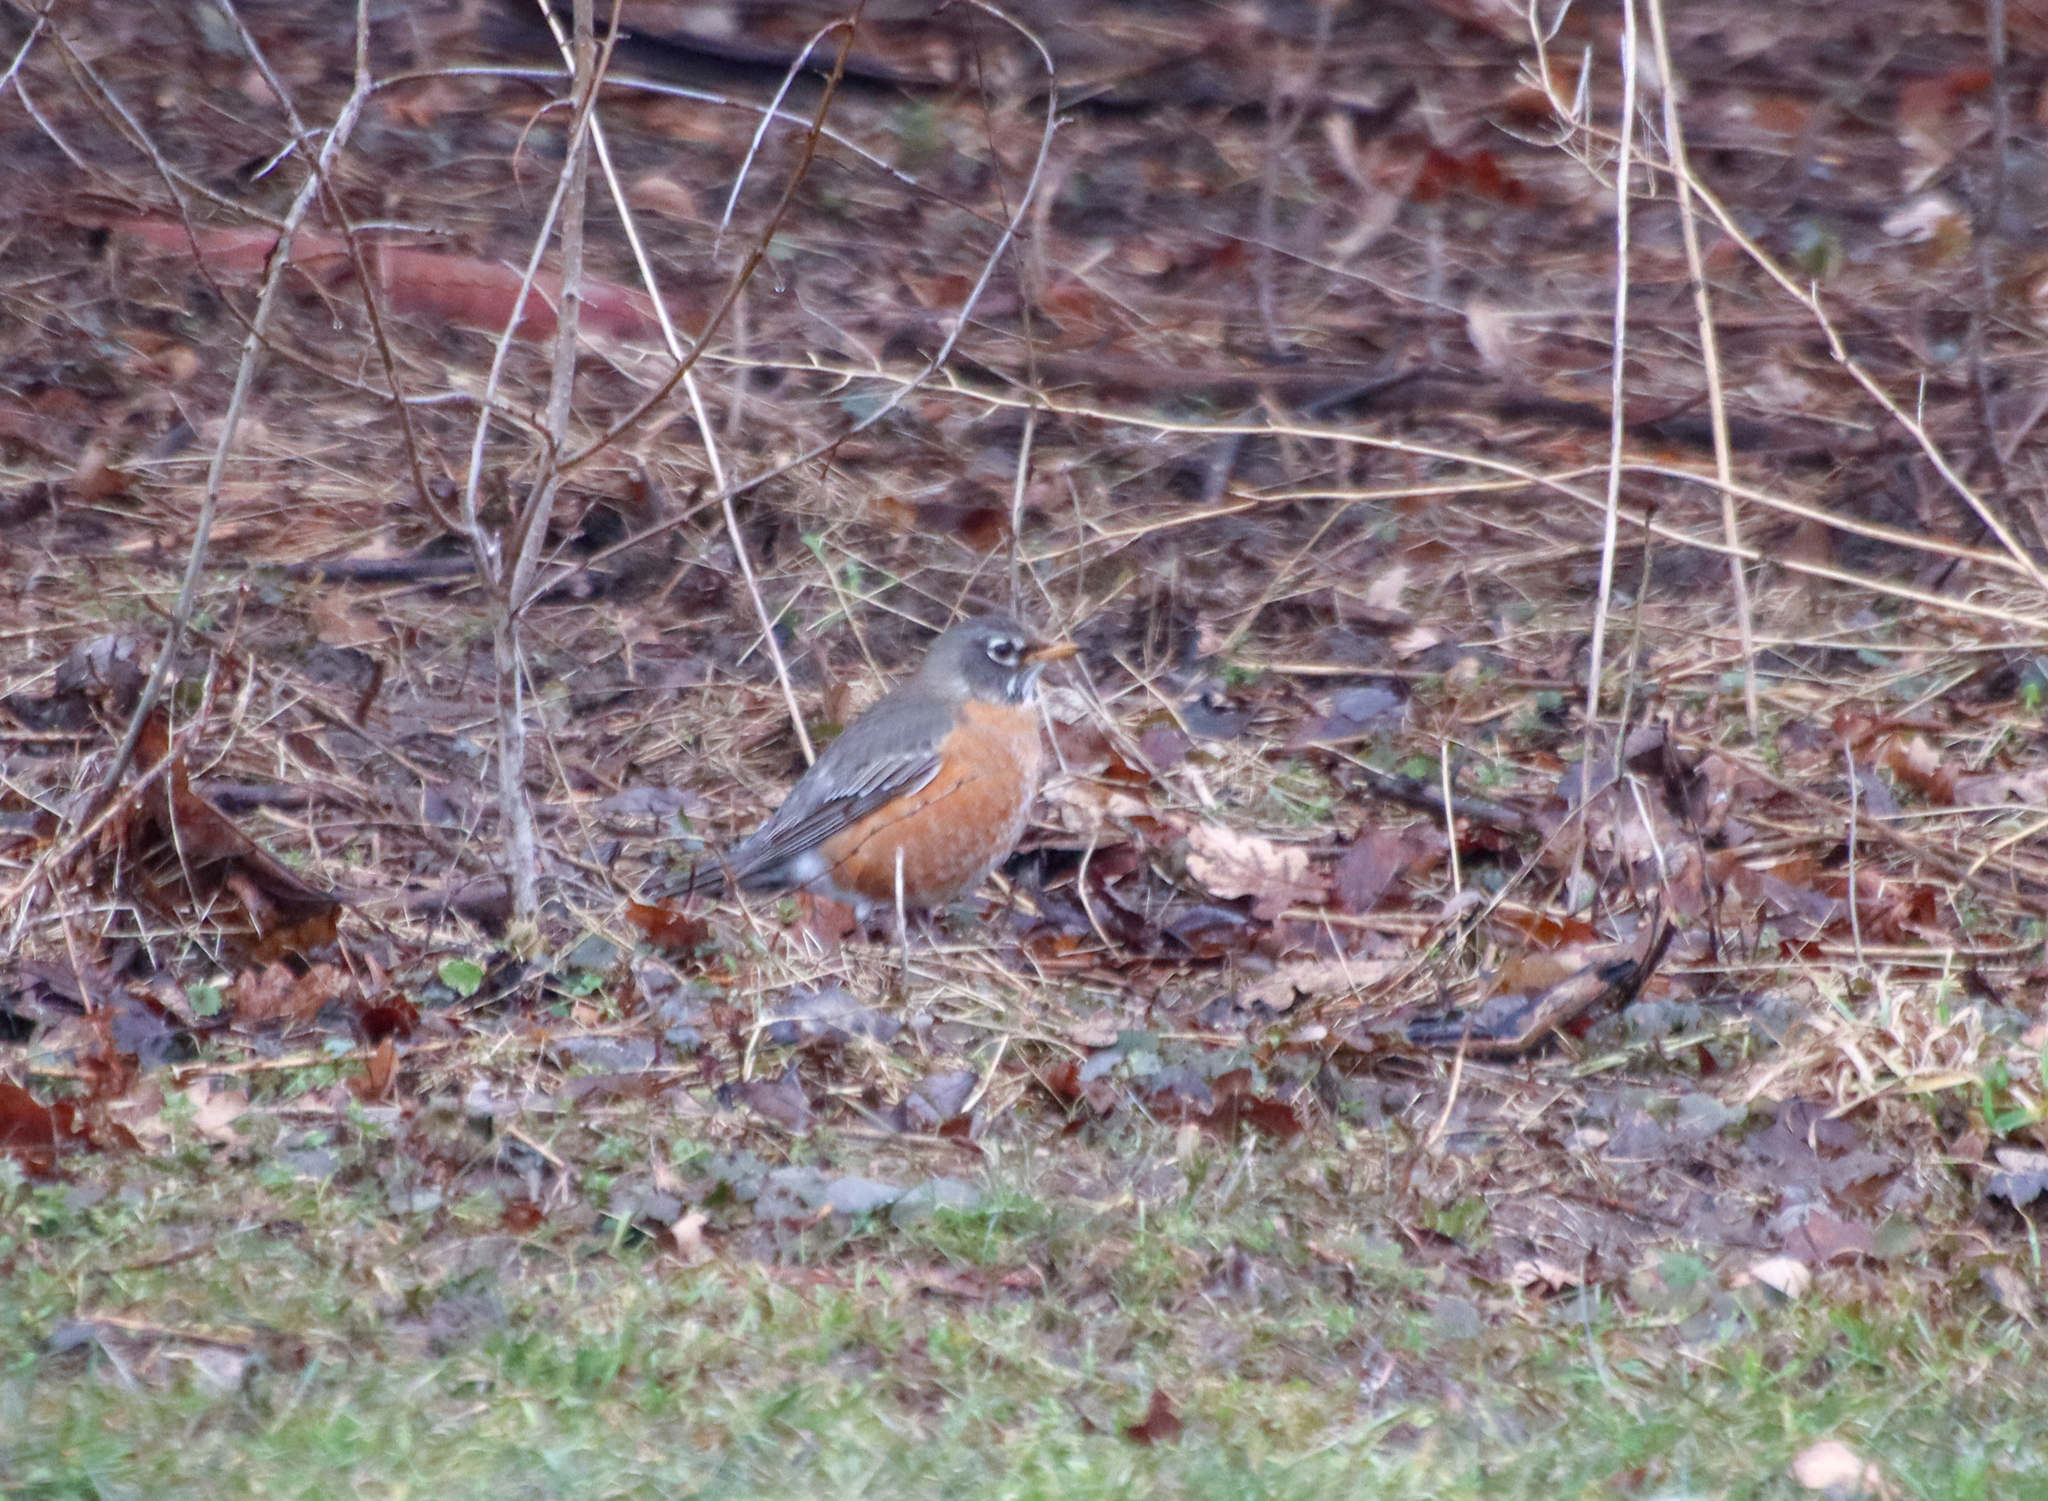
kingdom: Animalia
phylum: Chordata
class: Aves
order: Passeriformes
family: Turdidae
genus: Turdus
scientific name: Turdus migratorius
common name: American robin
